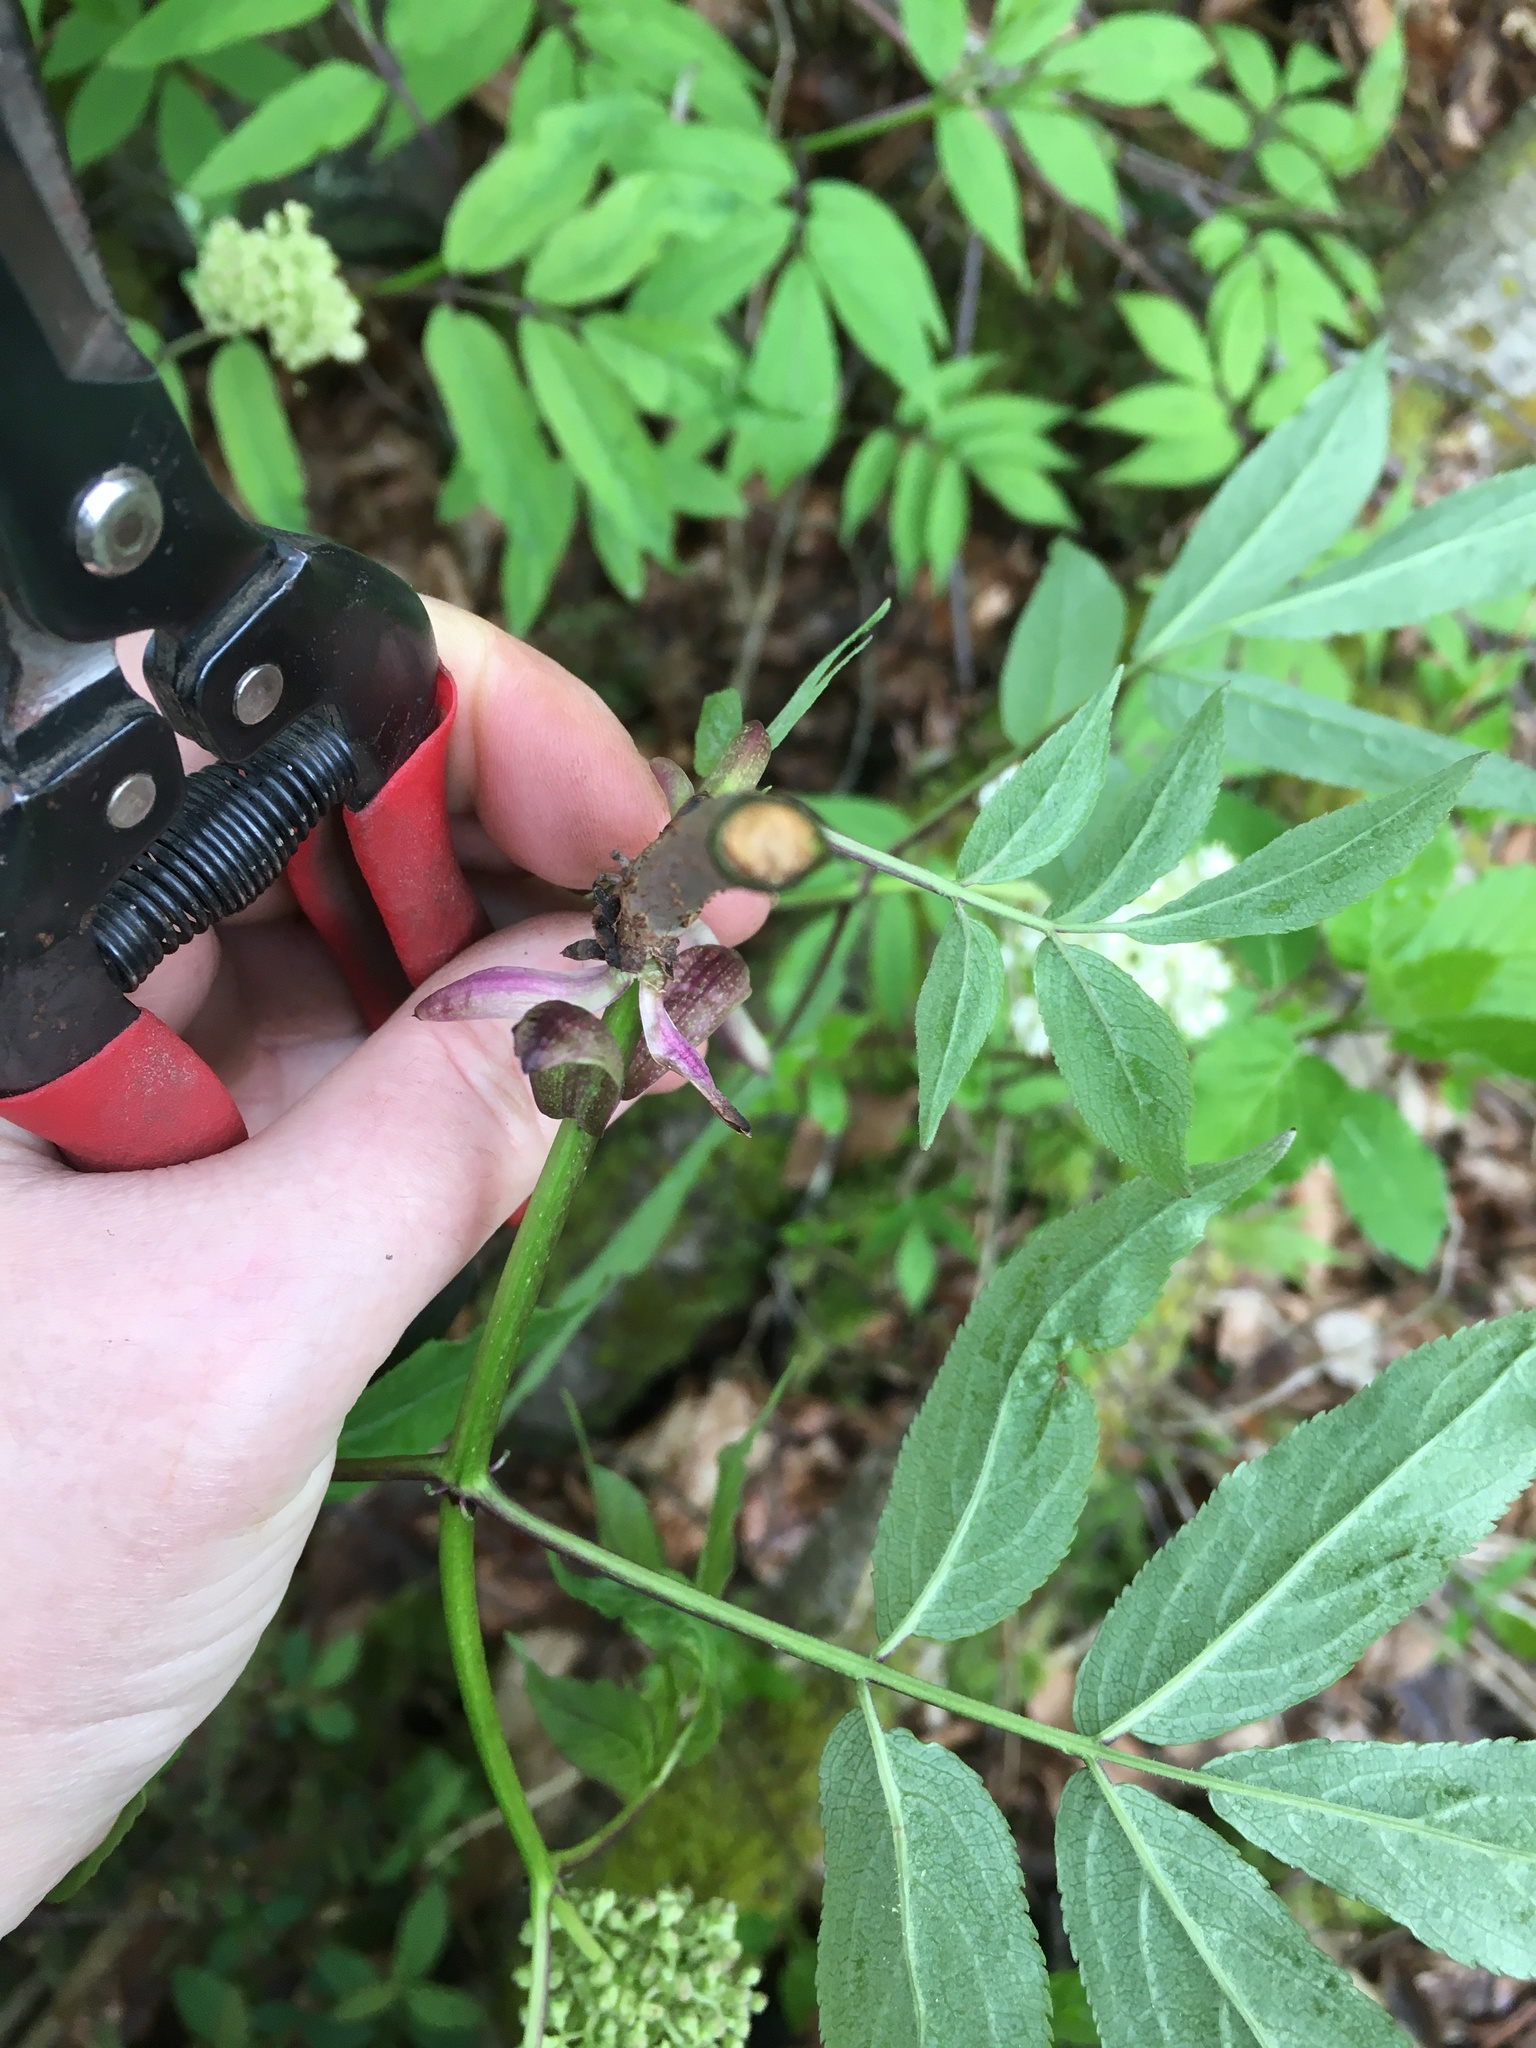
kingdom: Plantae
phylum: Tracheophyta
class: Magnoliopsida
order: Dipsacales
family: Viburnaceae
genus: Sambucus
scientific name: Sambucus racemosa
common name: Red-berried elder
